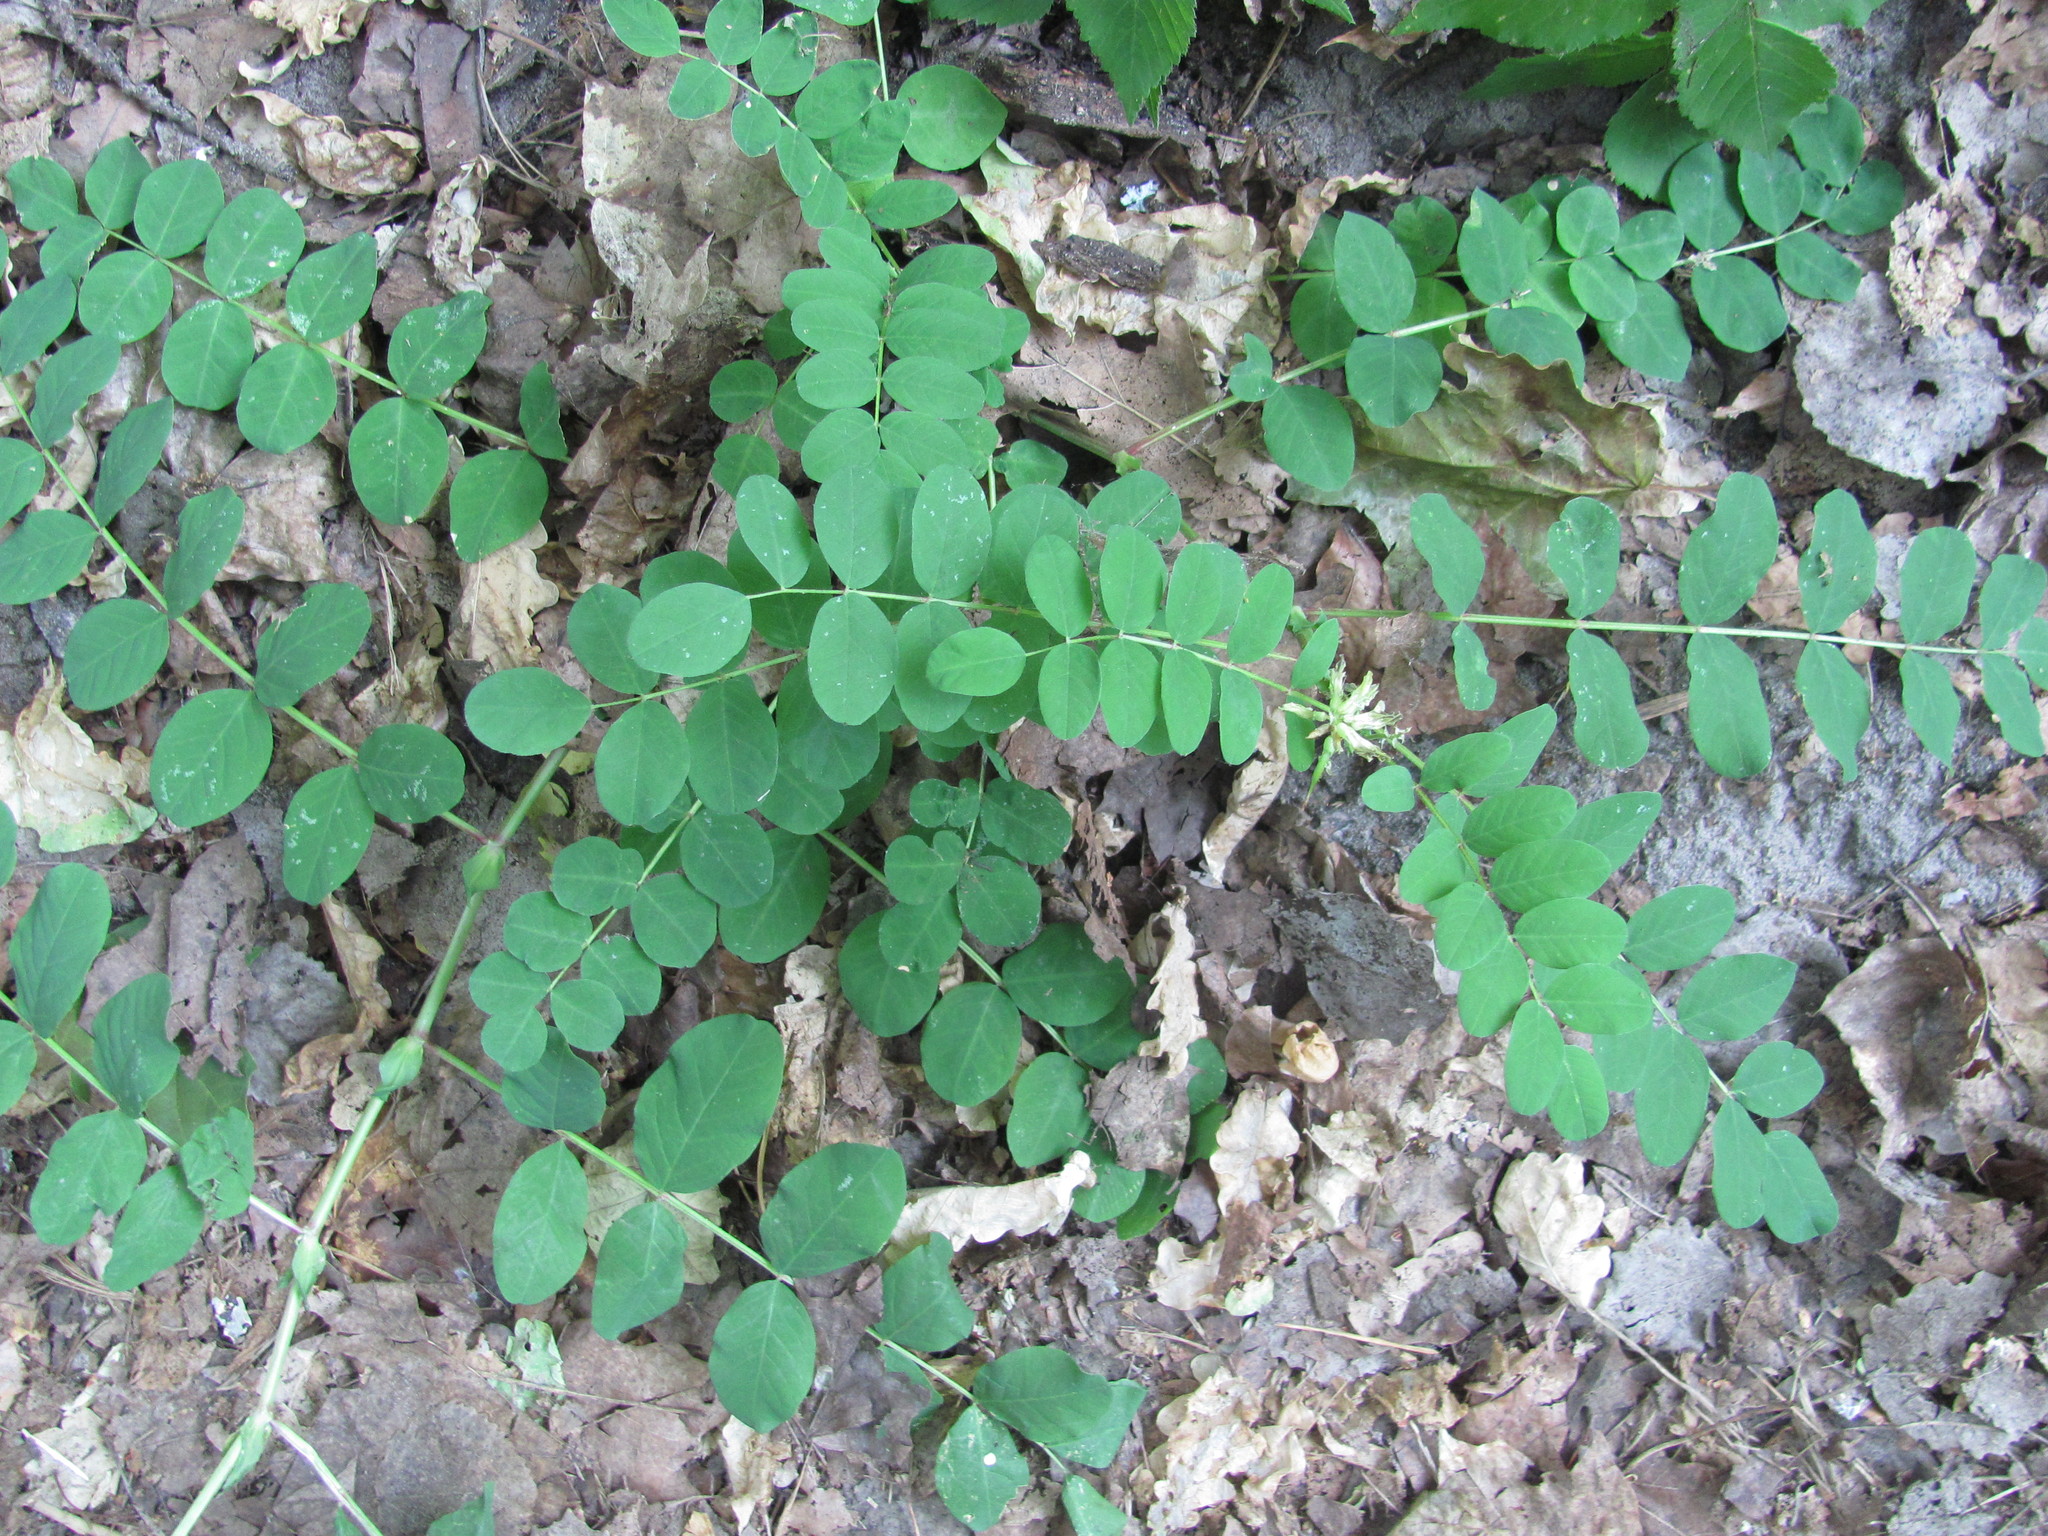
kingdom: Plantae
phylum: Tracheophyta
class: Magnoliopsida
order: Fabales
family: Fabaceae
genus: Astragalus
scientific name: Astragalus glycyphyllos
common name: Wild liquorice
